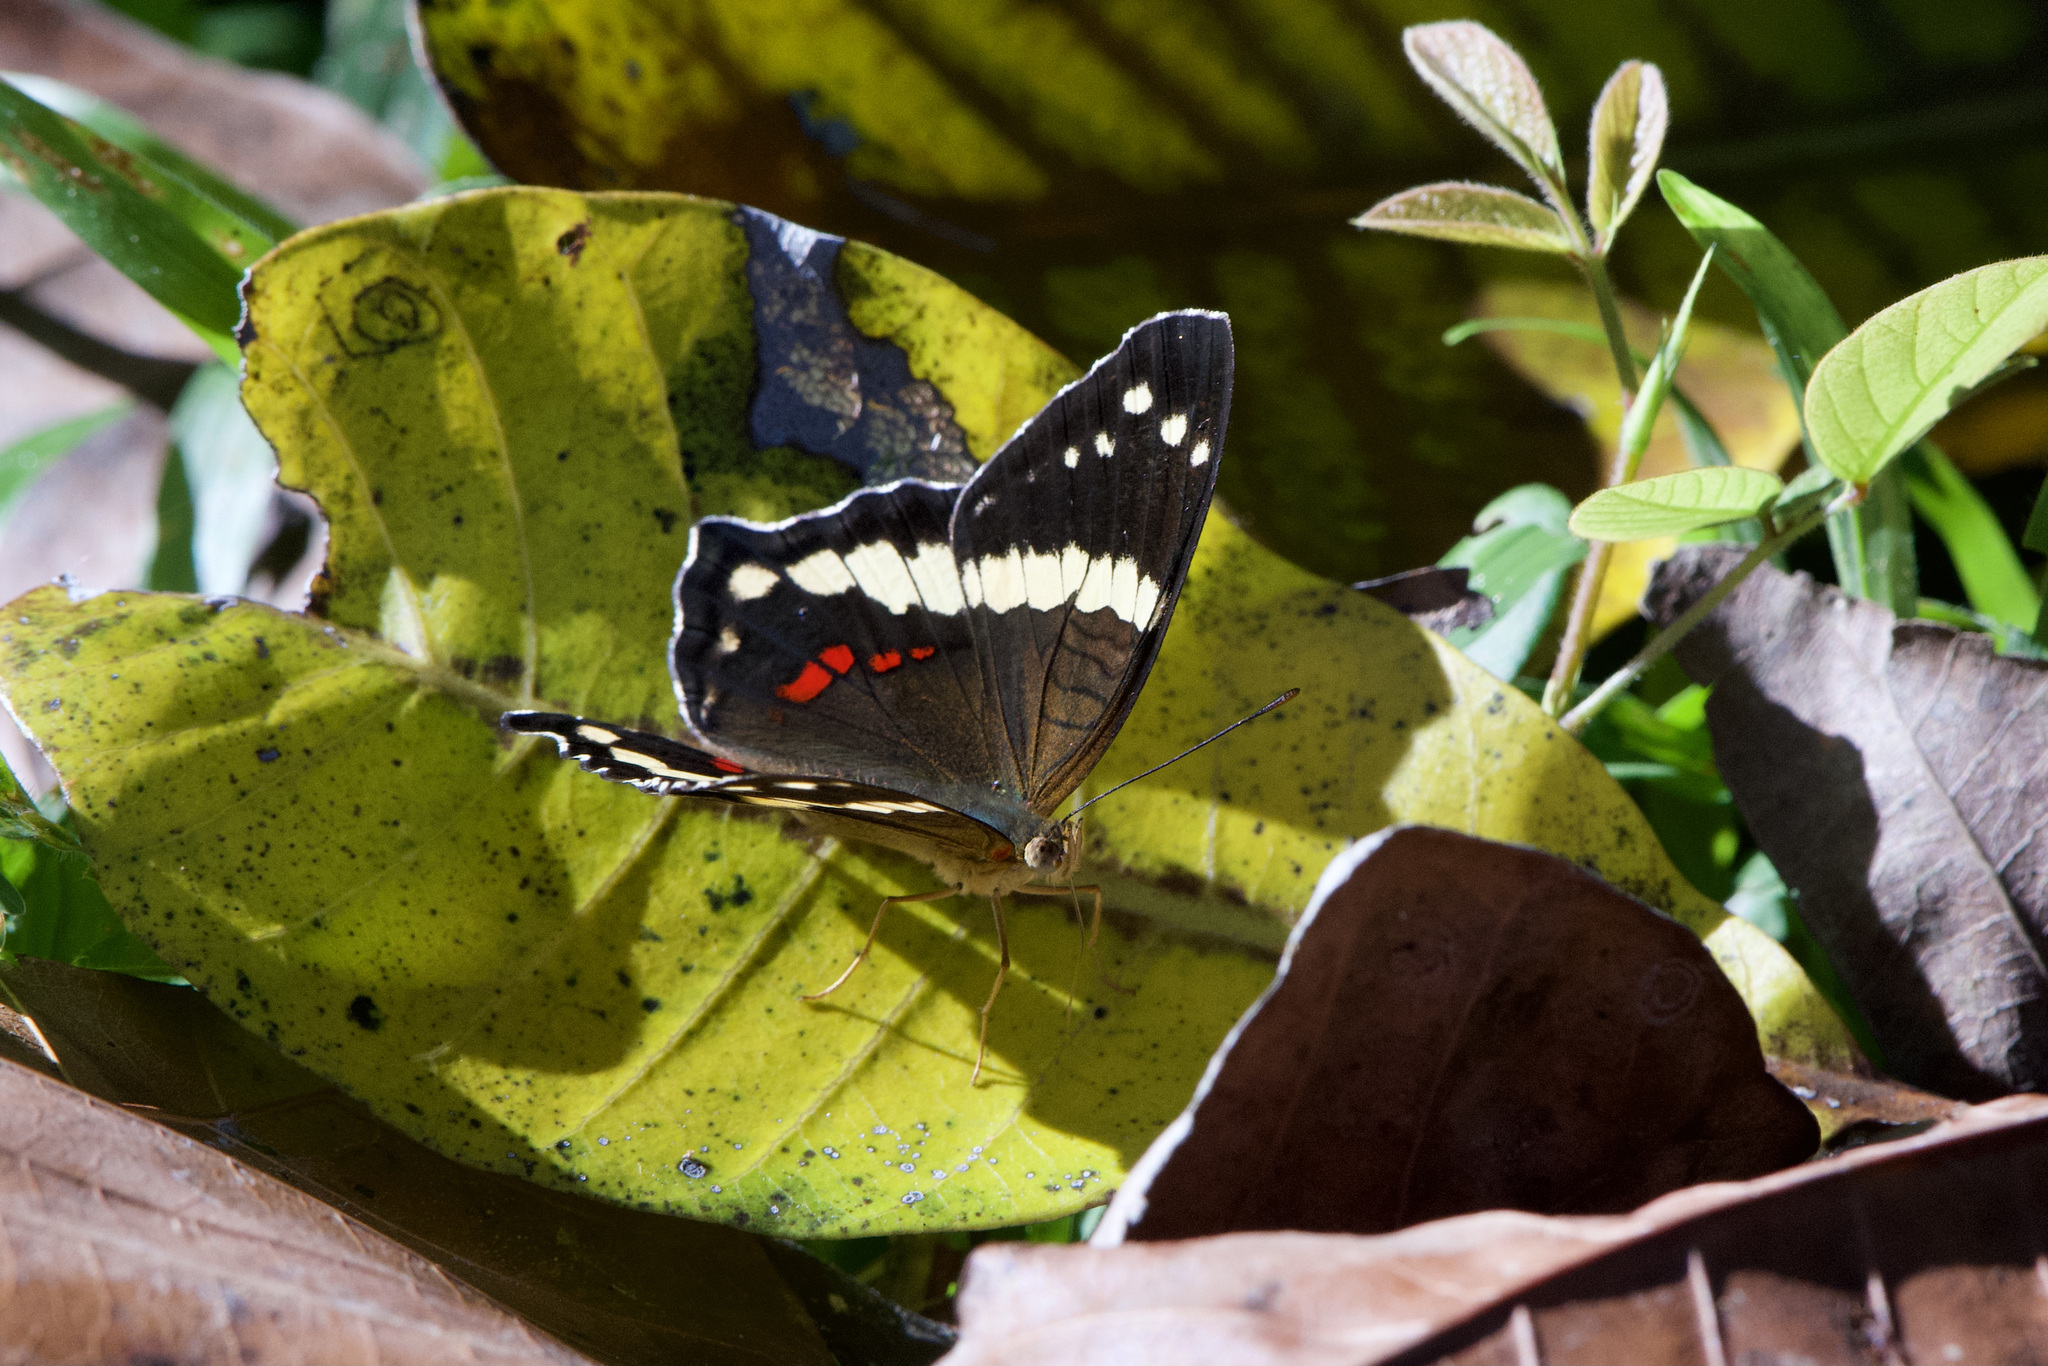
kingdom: Animalia
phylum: Arthropoda
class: Insecta
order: Lepidoptera
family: Nymphalidae
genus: Anartia
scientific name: Anartia fatima
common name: Banded peacock
